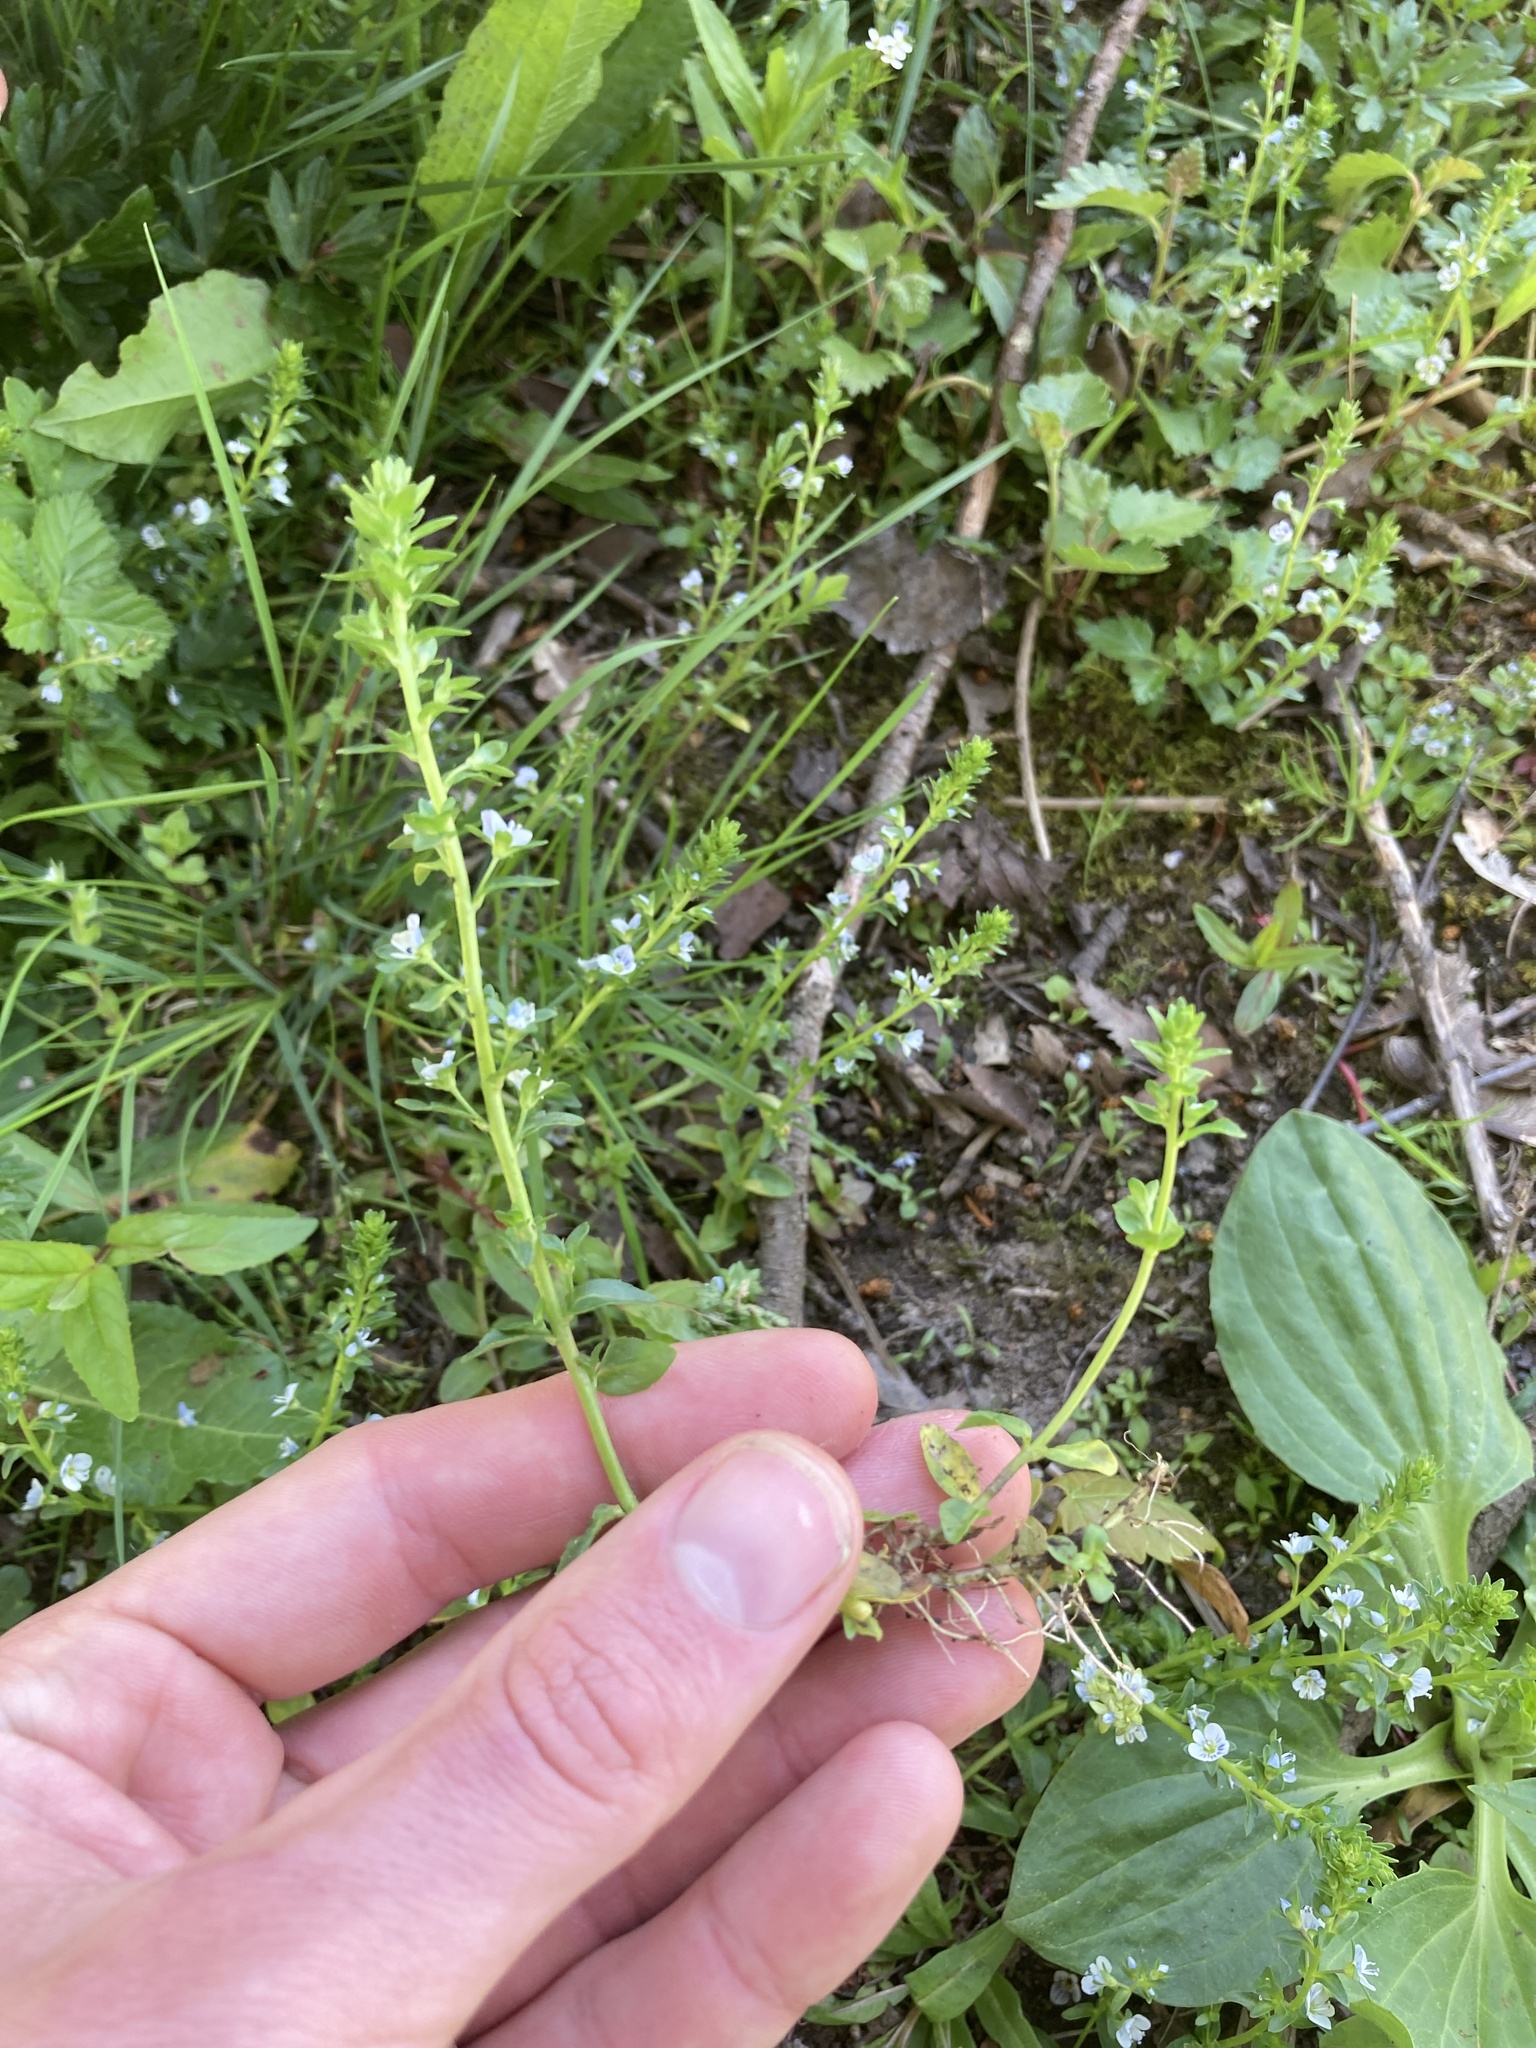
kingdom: Plantae
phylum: Tracheophyta
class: Magnoliopsida
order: Lamiales
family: Plantaginaceae
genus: Veronica
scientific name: Veronica serpyllifolia
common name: Thyme-leaved speedwell
